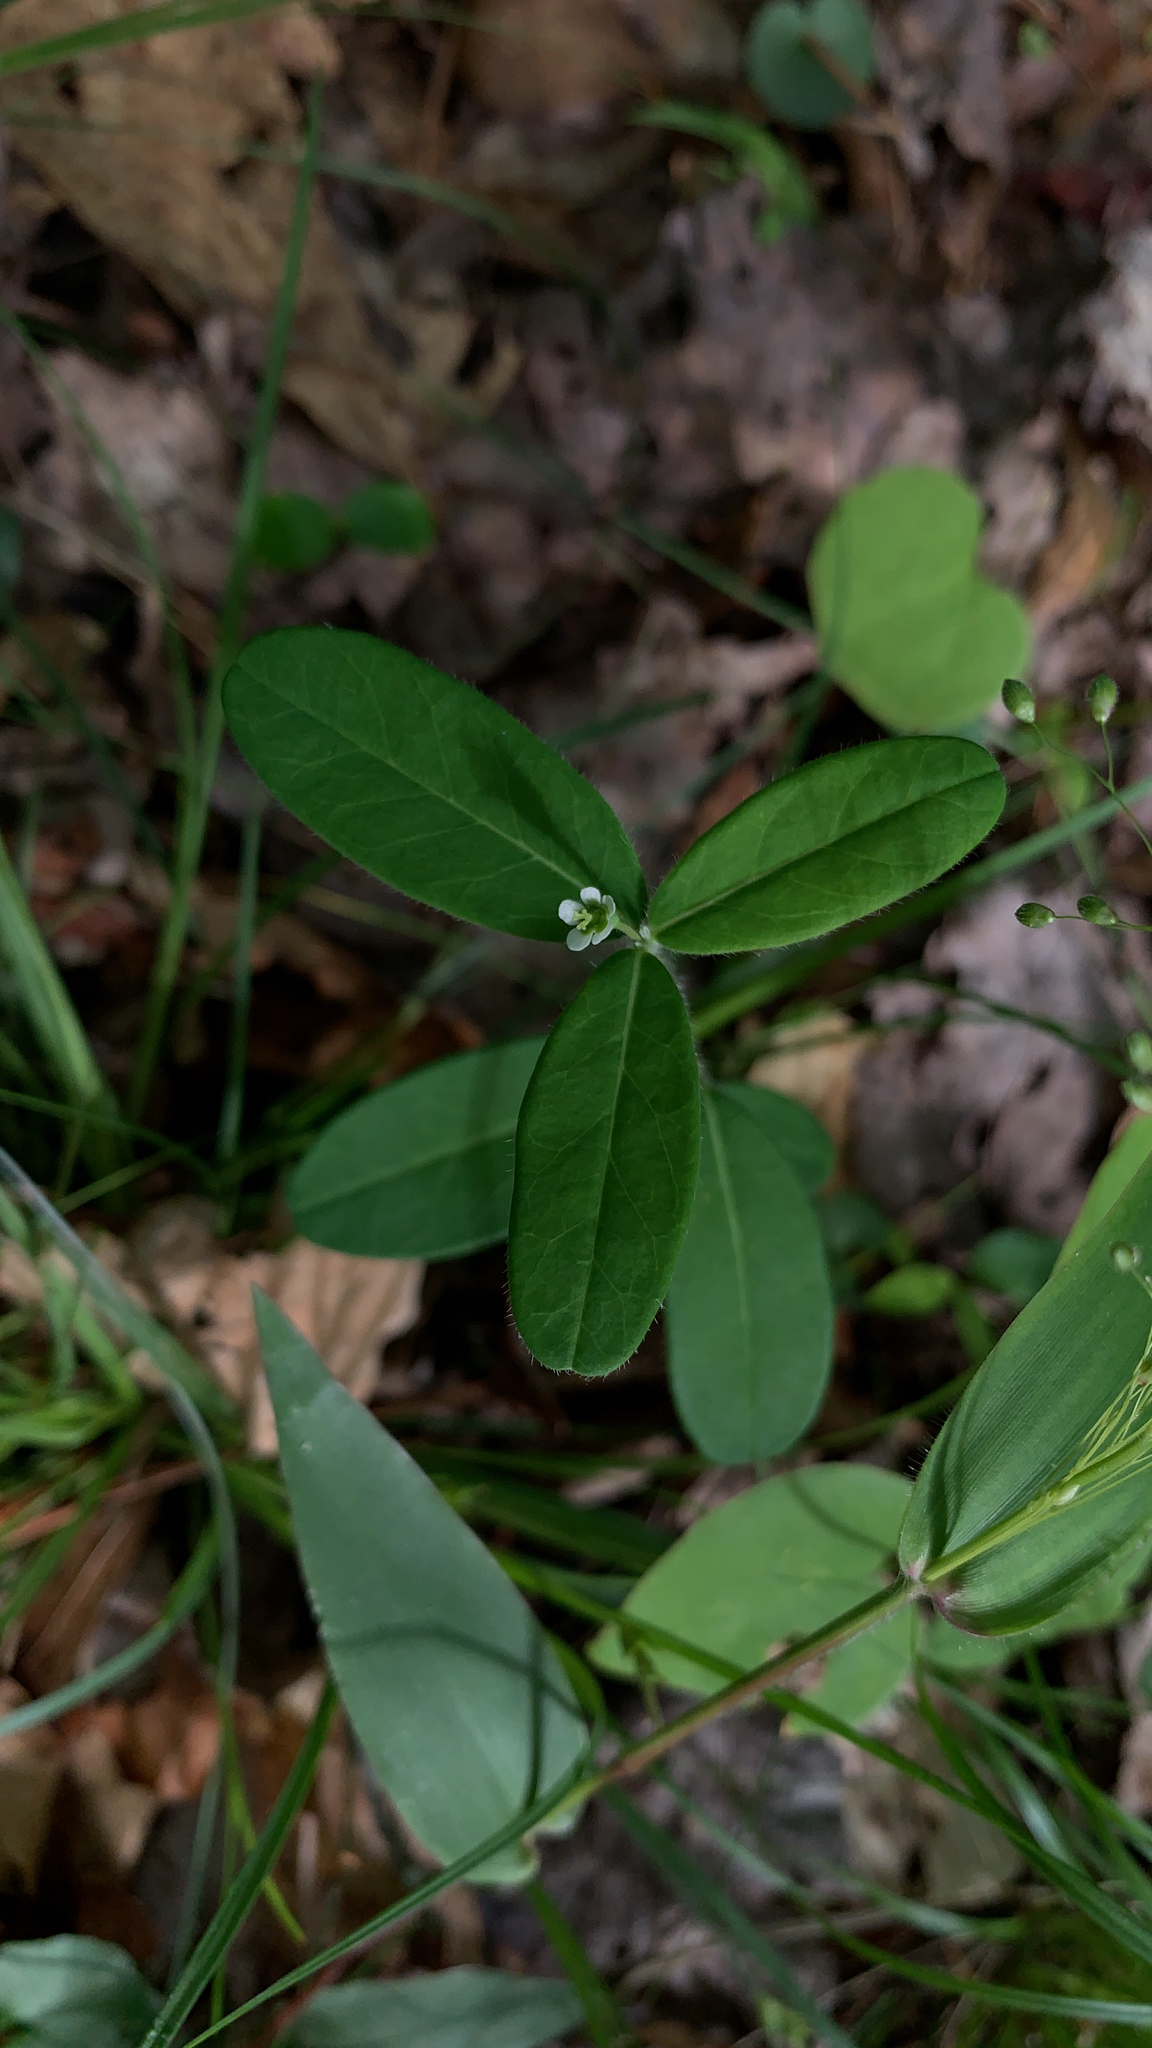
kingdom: Plantae
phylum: Tracheophyta
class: Magnoliopsida
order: Malpighiales
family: Euphorbiaceae
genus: Euphorbia
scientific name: Euphorbia corollata
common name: Flowering spurge
